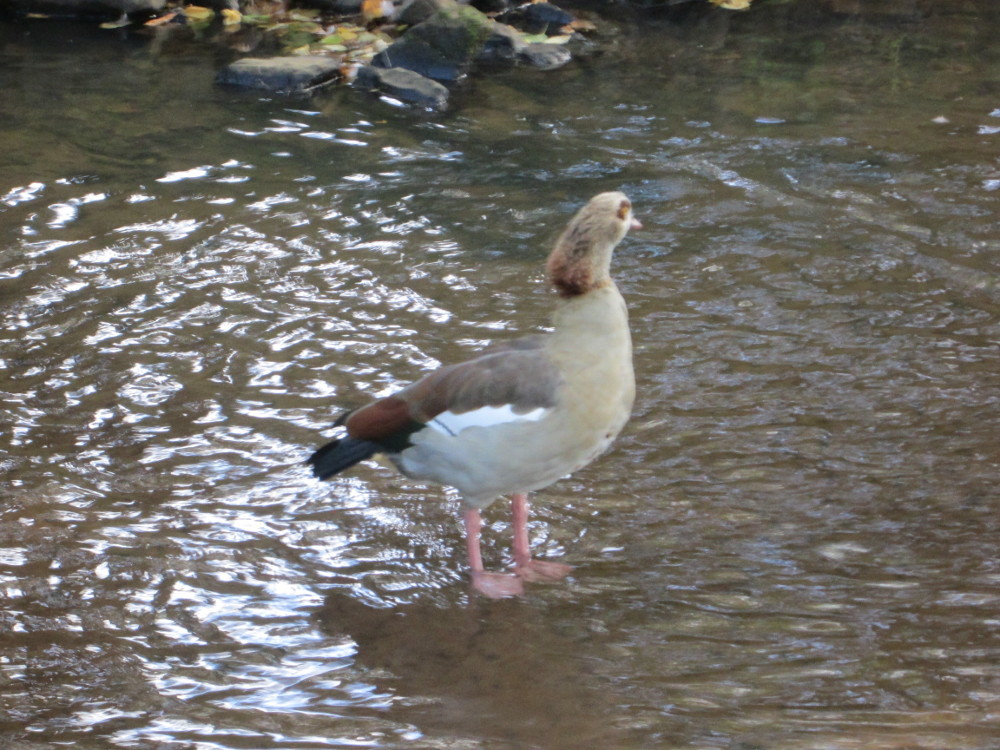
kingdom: Animalia
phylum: Chordata
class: Aves
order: Anseriformes
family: Anatidae
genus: Alopochen
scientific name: Alopochen aegyptiaca
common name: Egyptian goose
